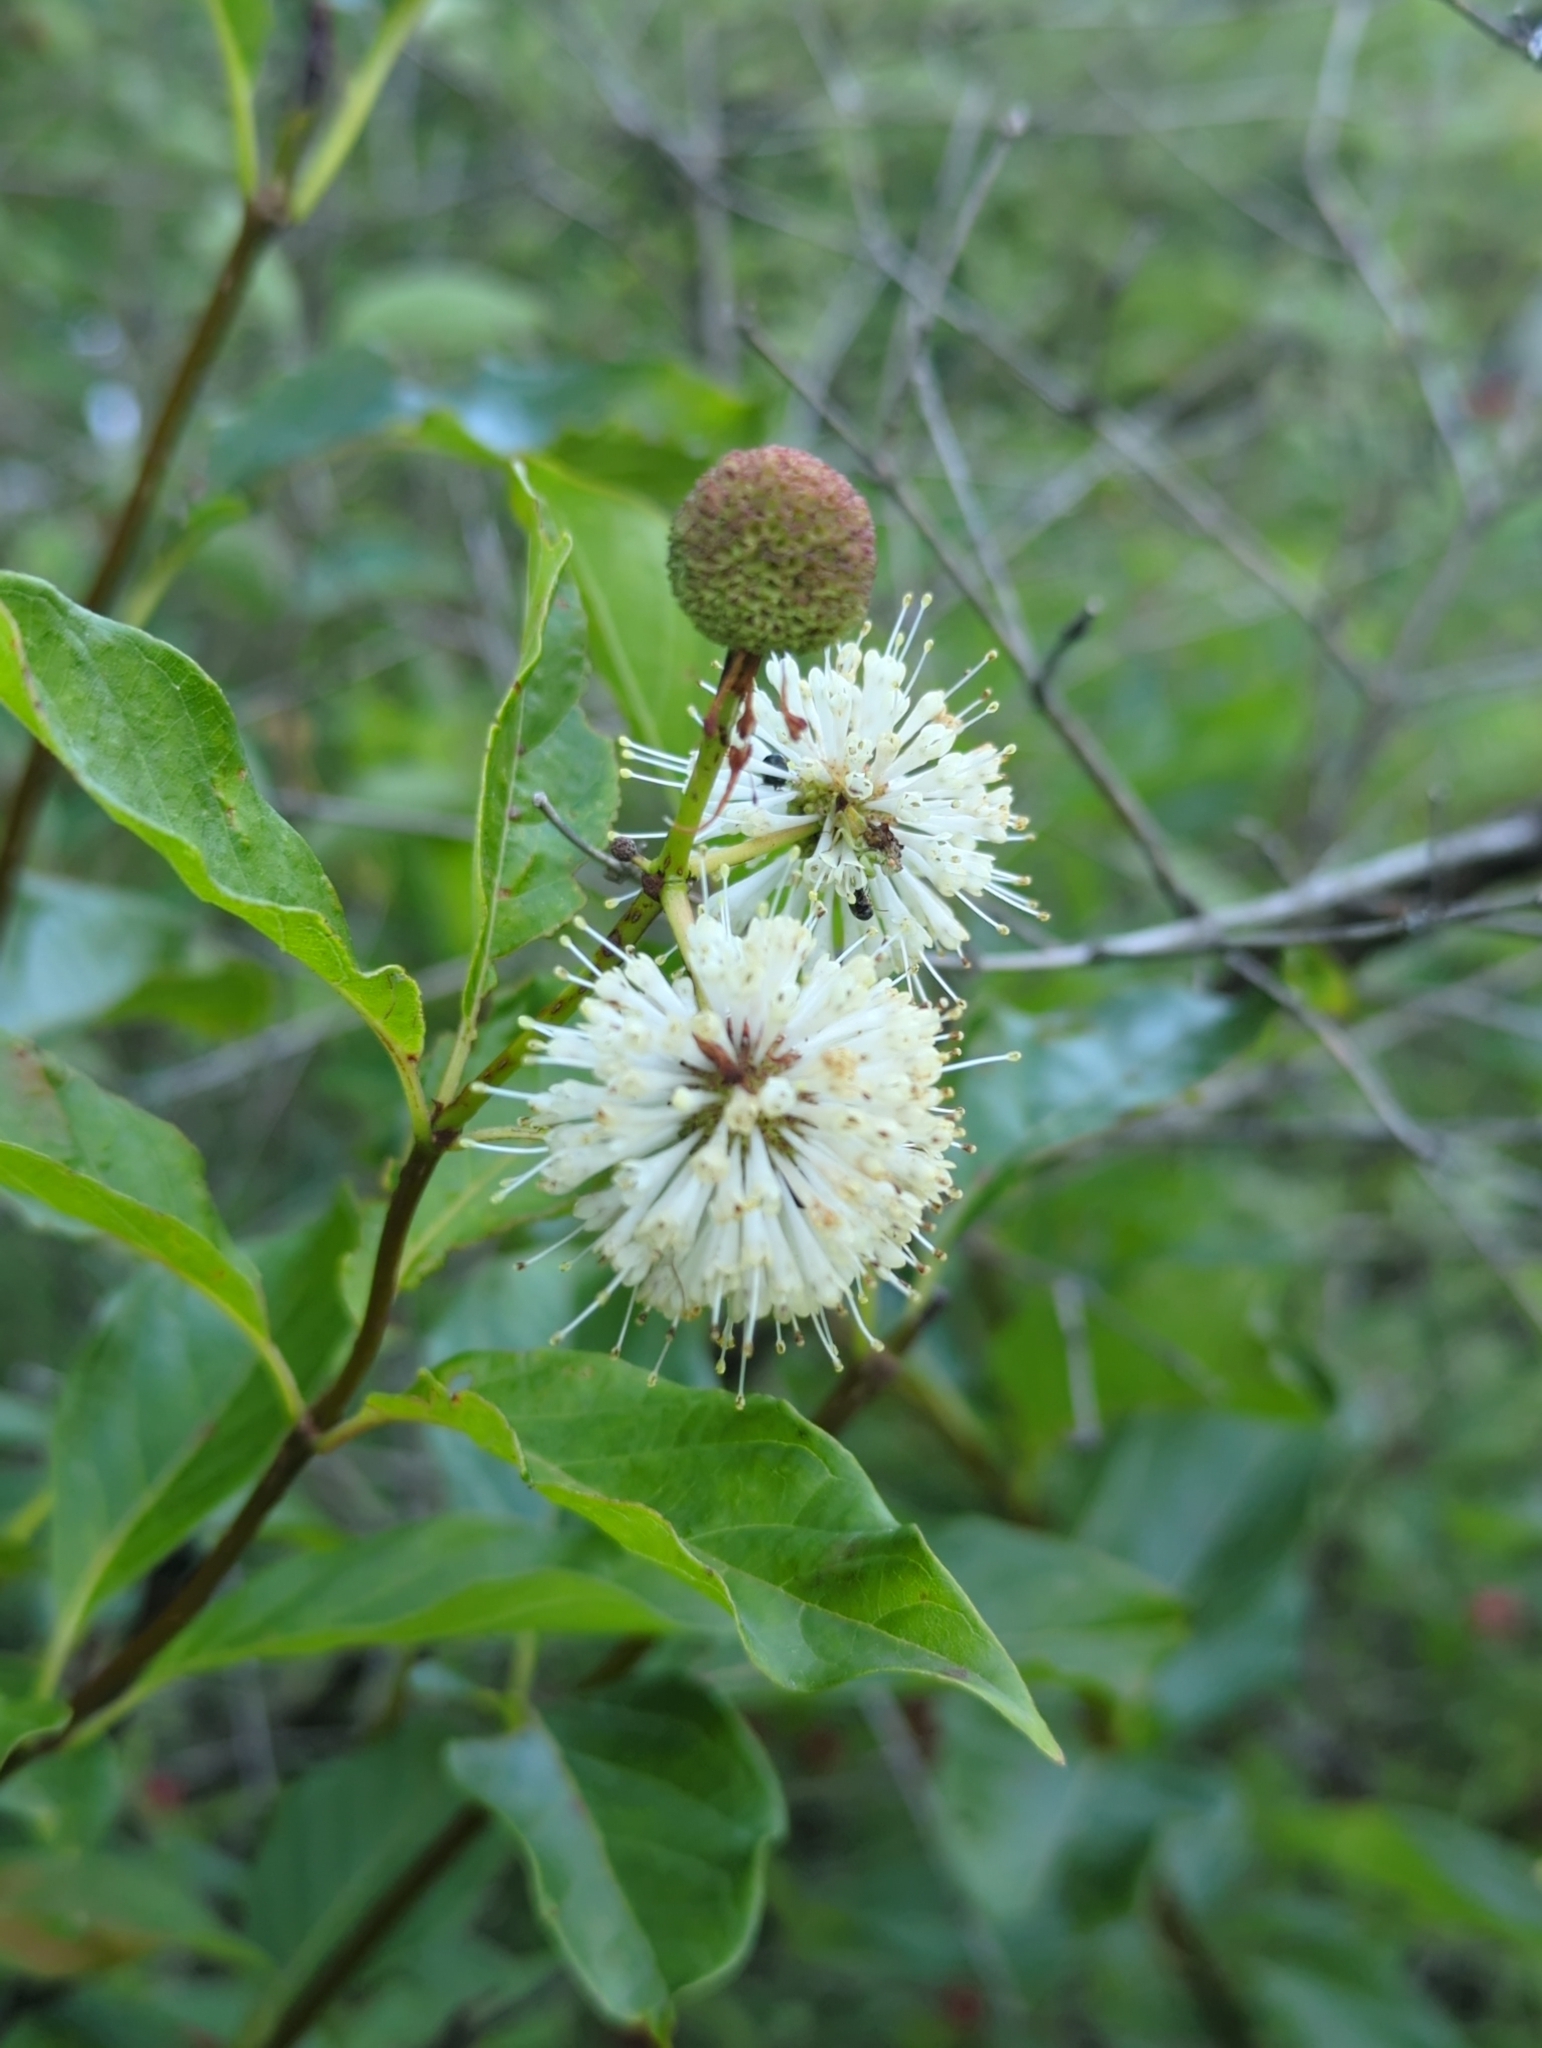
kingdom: Plantae
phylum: Tracheophyta
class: Magnoliopsida
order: Gentianales
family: Rubiaceae
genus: Cephalanthus
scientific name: Cephalanthus occidentalis
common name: Button-willow
